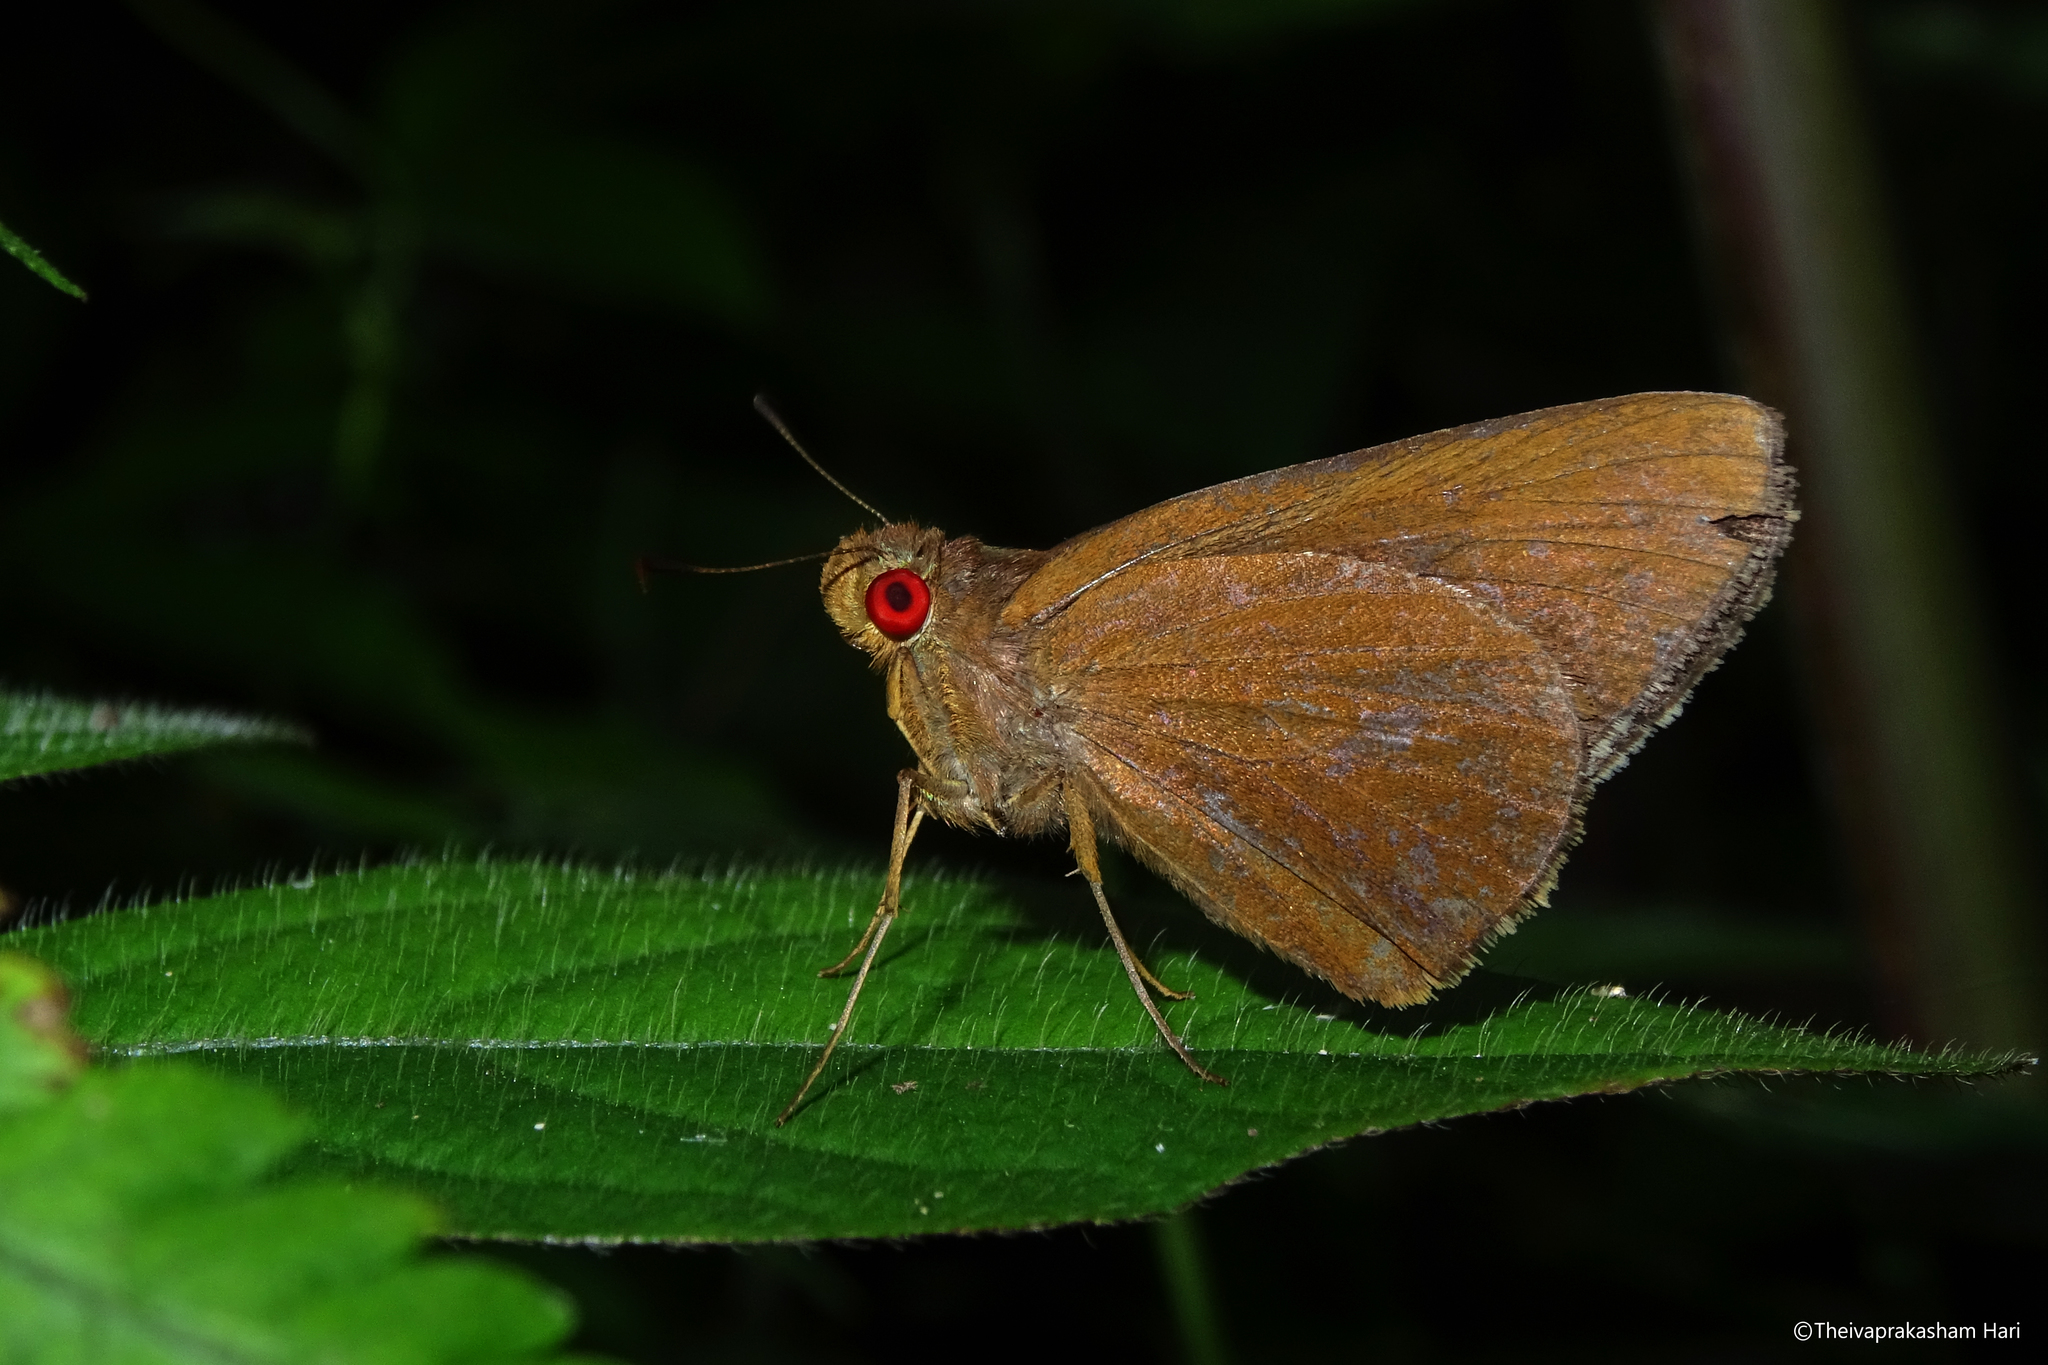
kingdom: Animalia
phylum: Arthropoda
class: Insecta
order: Lepidoptera
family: Hesperiidae
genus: Matapa
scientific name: Matapa aria
